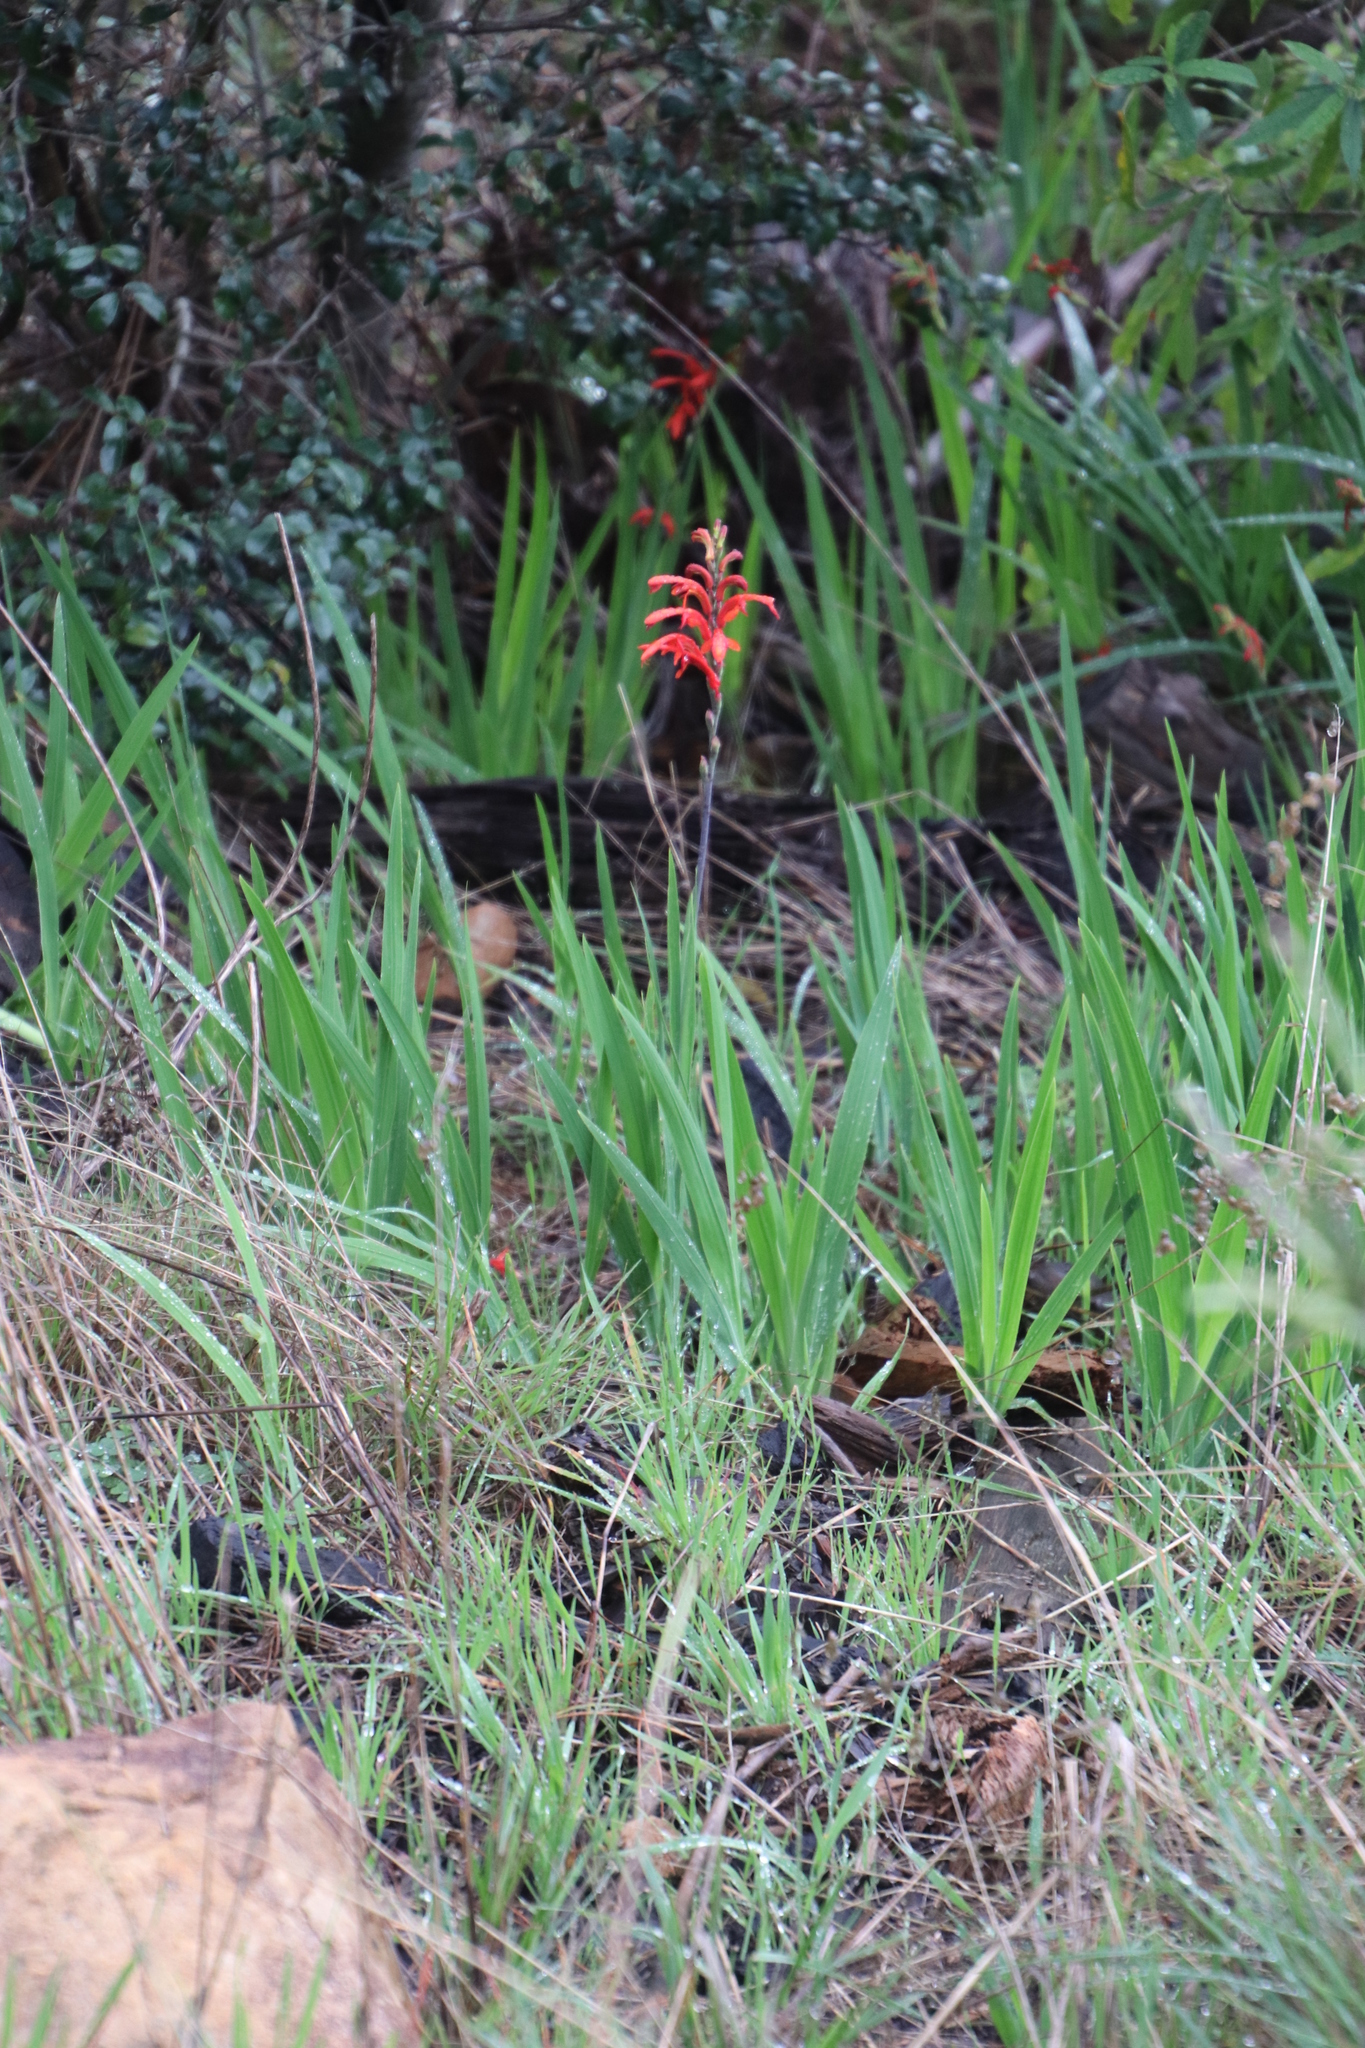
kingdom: Plantae
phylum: Tracheophyta
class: Liliopsida
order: Asparagales
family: Iridaceae
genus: Chasmanthe
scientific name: Chasmanthe aethiopica
